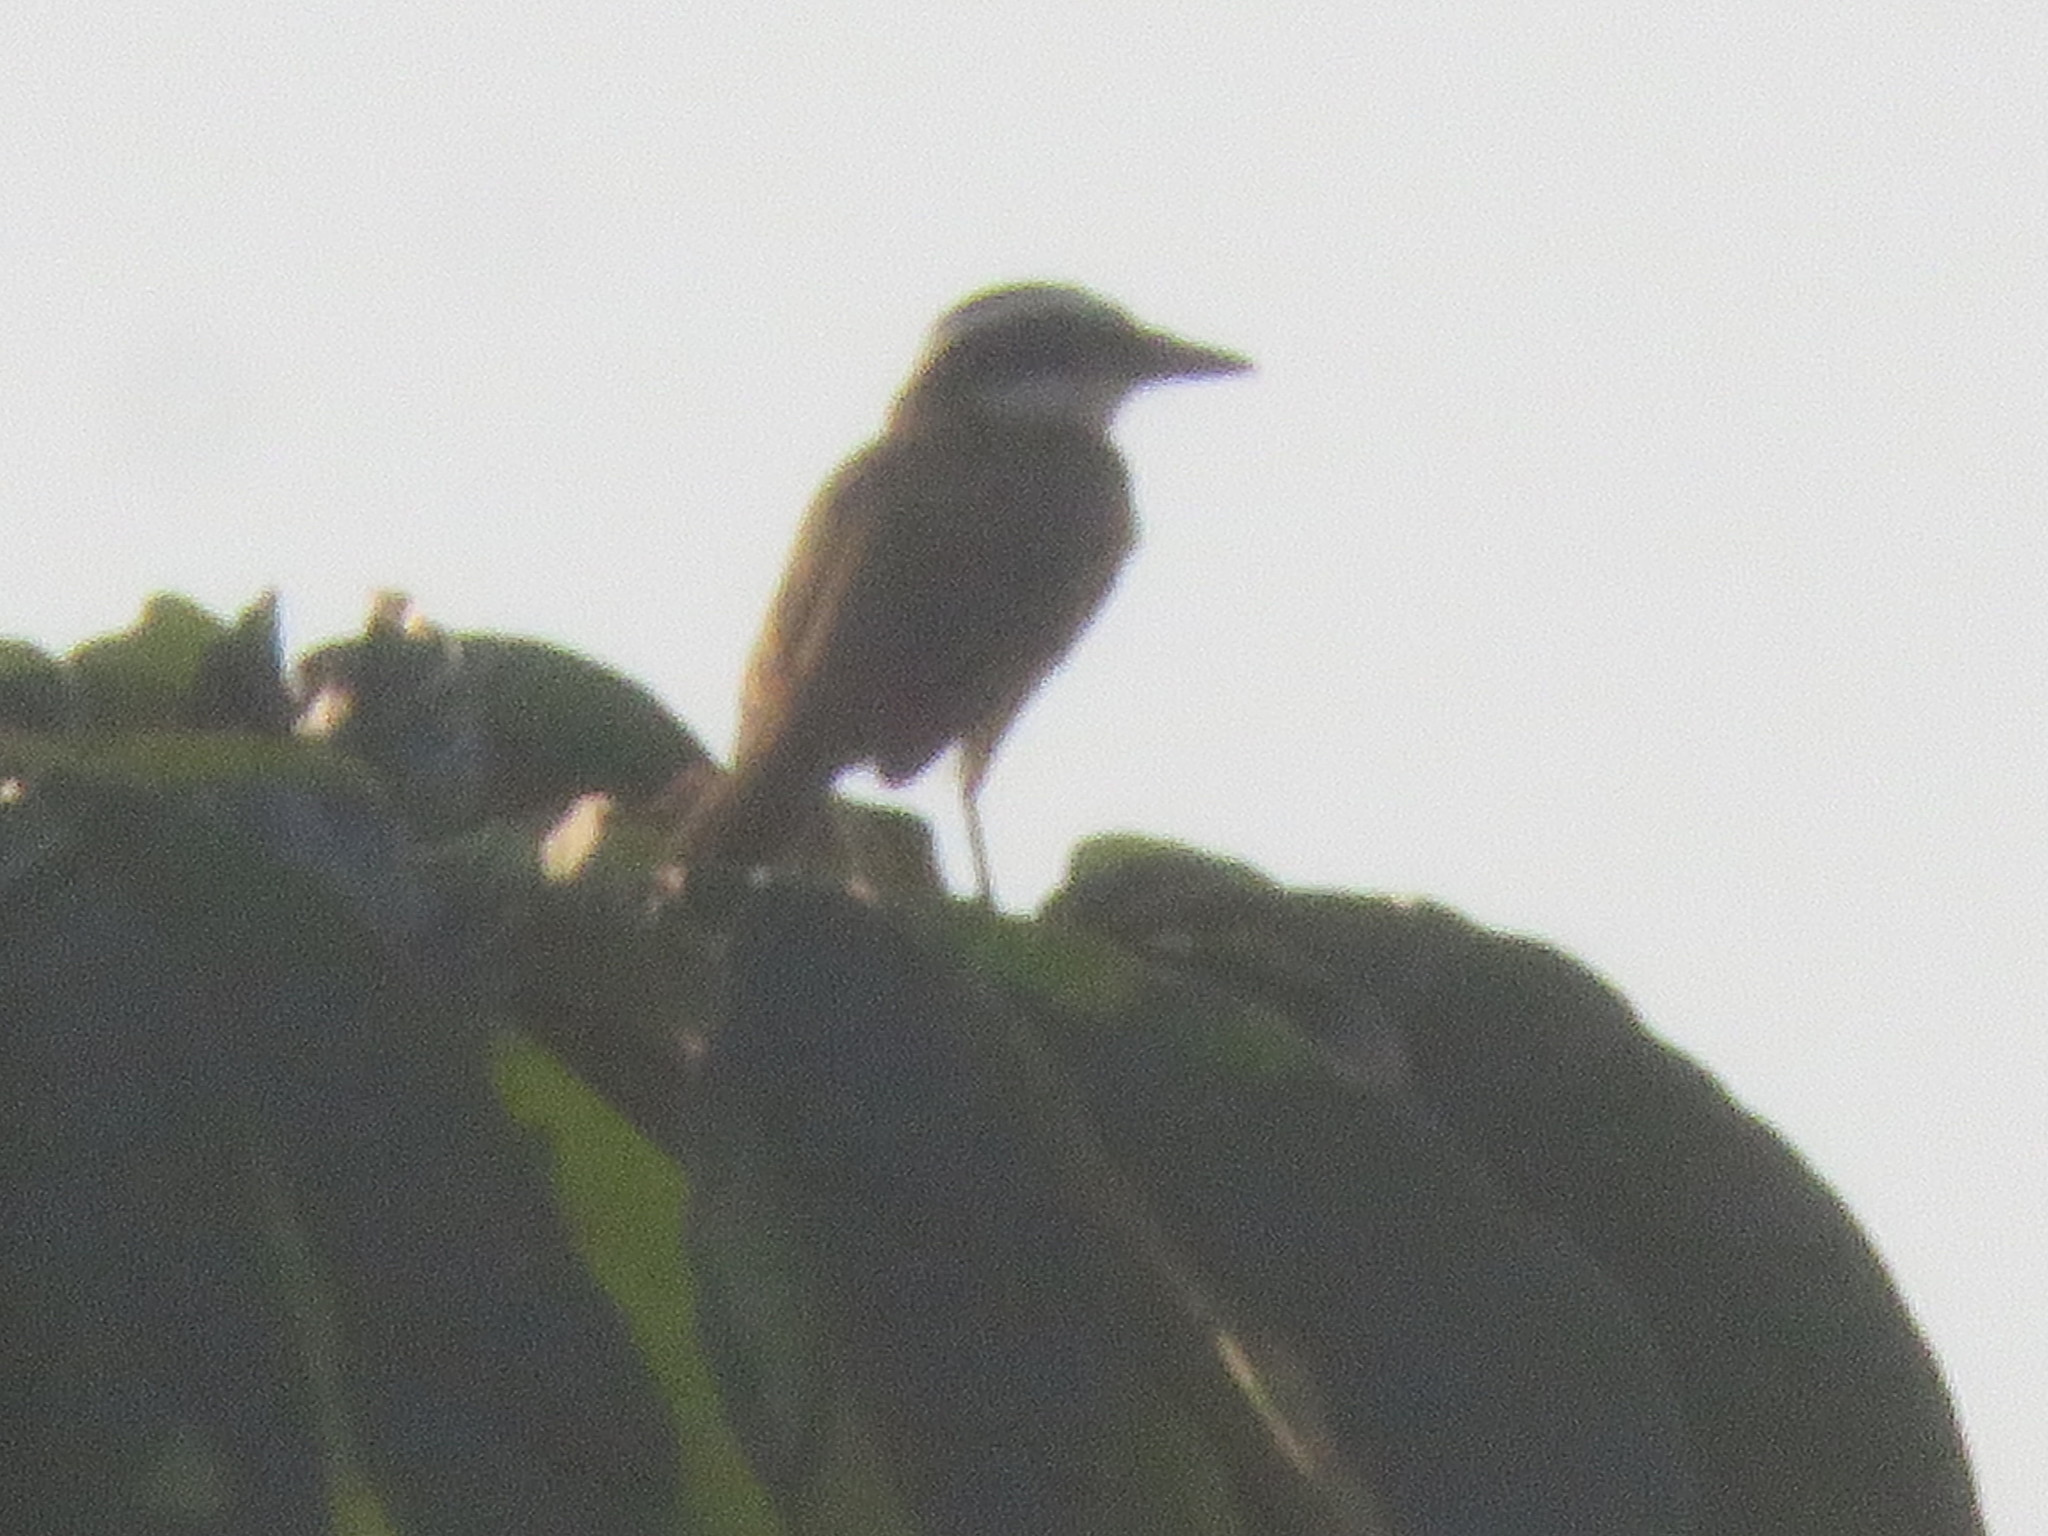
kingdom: Animalia
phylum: Chordata
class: Aves
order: Passeriformes
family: Tyrannidae
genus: Pitangus
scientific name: Pitangus sulphuratus
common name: Great kiskadee
